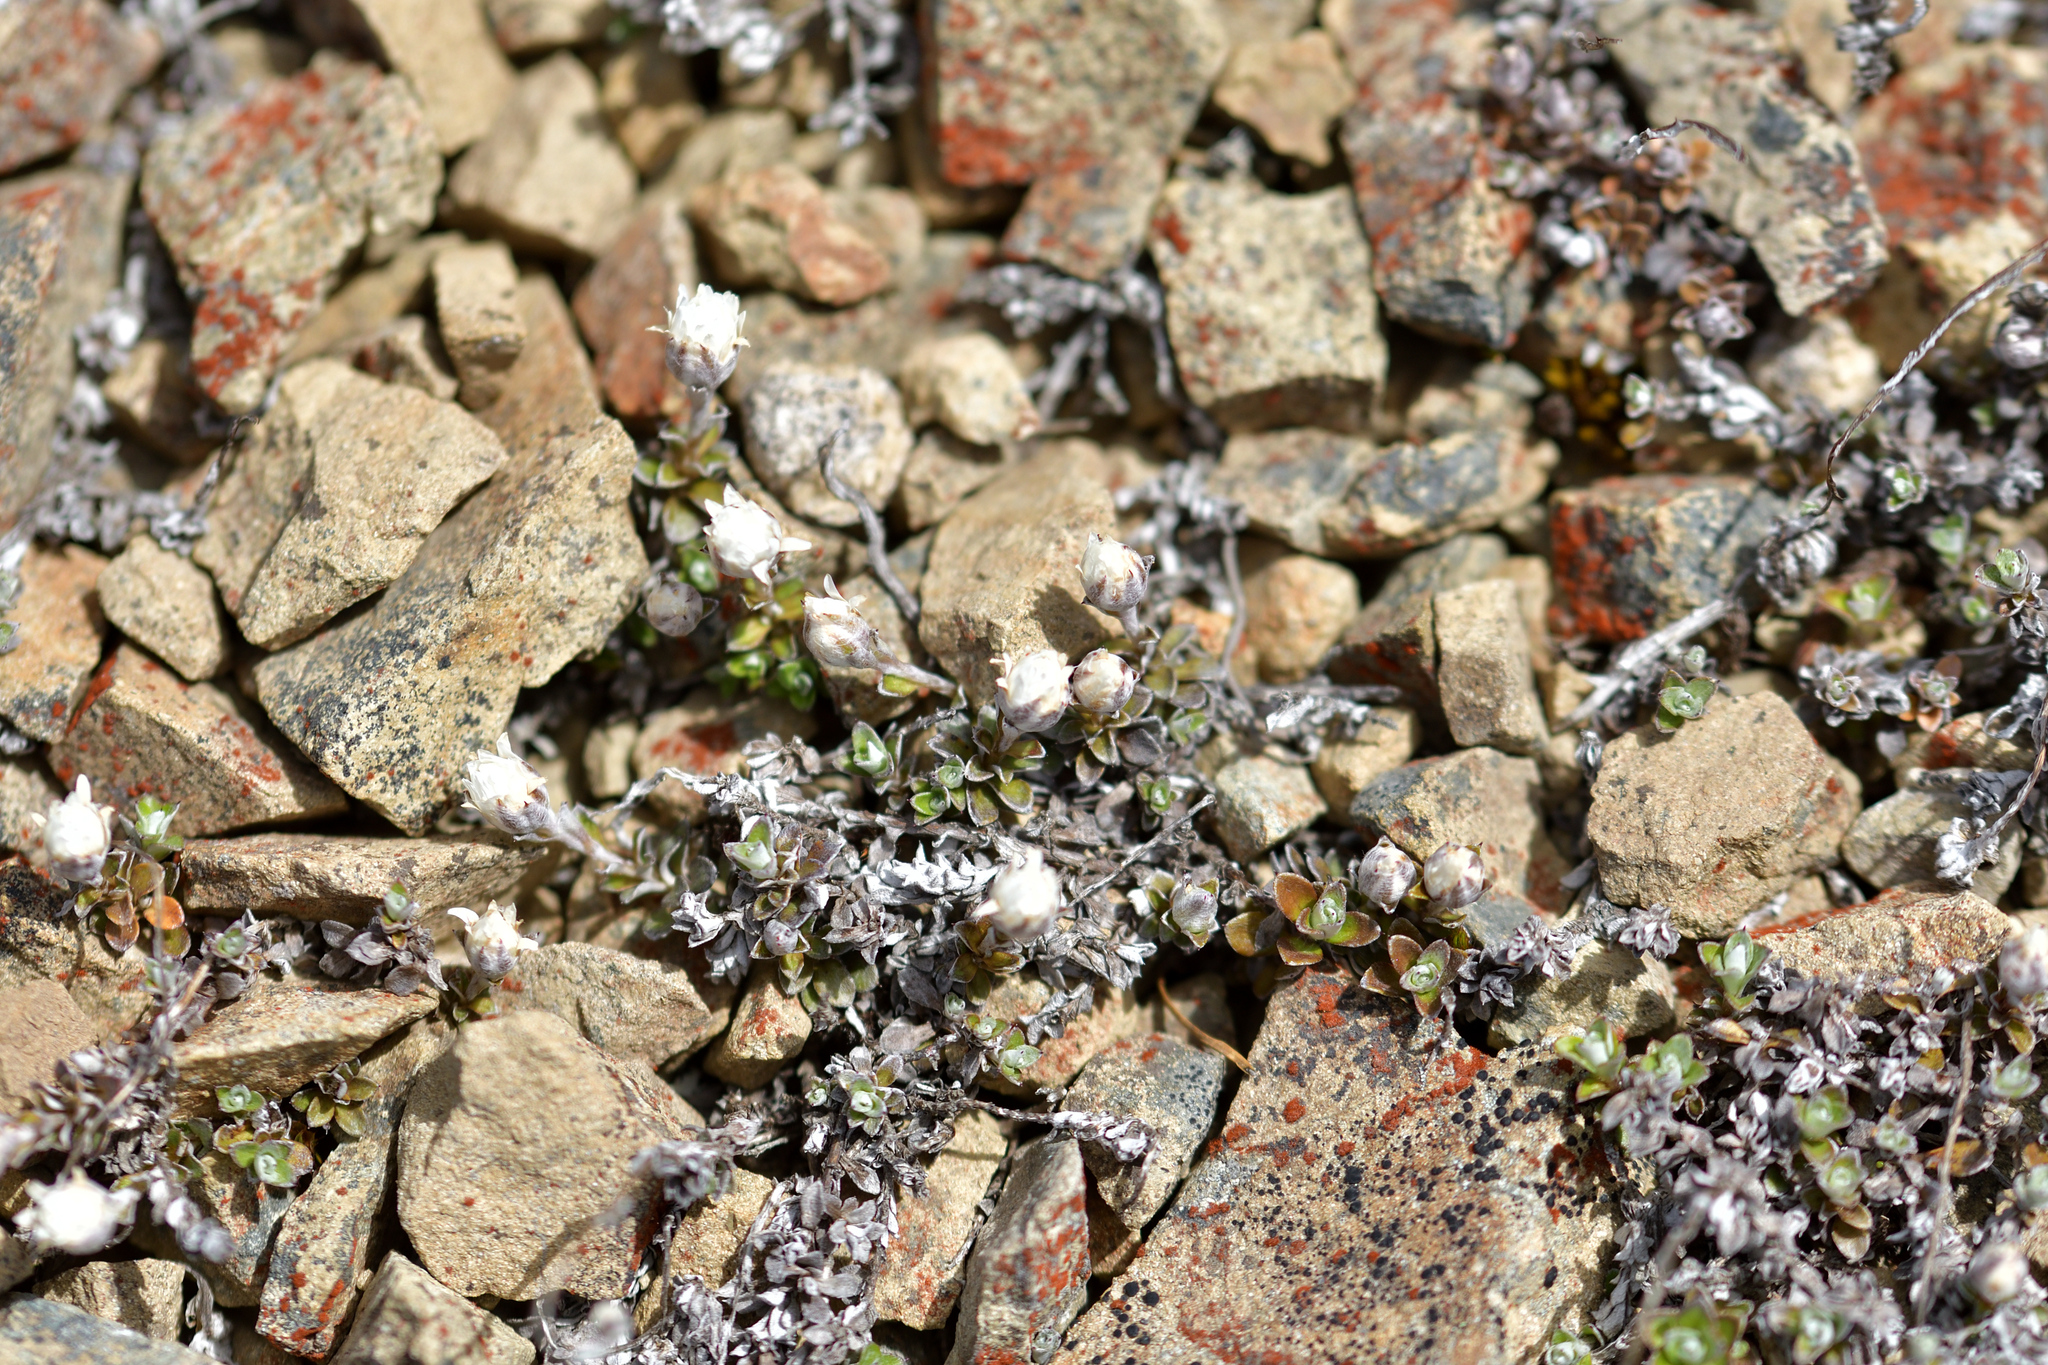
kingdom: Plantae
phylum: Tracheophyta
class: Magnoliopsida
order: Asterales
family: Asteraceae
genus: Anaphalioides
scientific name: Anaphalioides bellidioides
